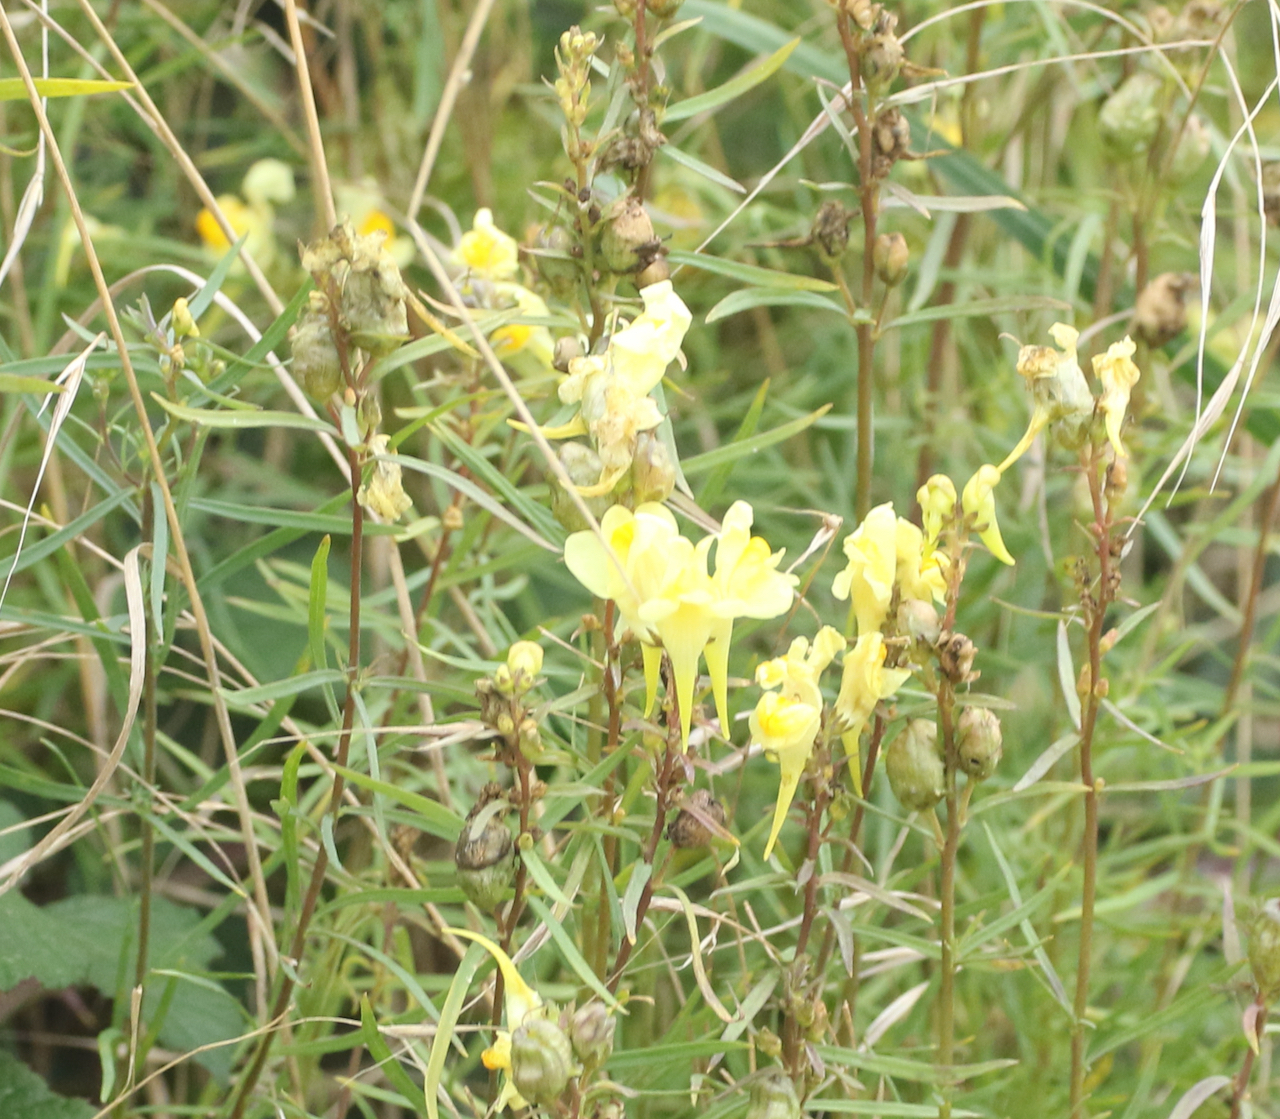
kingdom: Plantae
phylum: Tracheophyta
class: Magnoliopsida
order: Lamiales
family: Plantaginaceae
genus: Linaria
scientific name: Linaria vulgaris
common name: Butter and eggs
